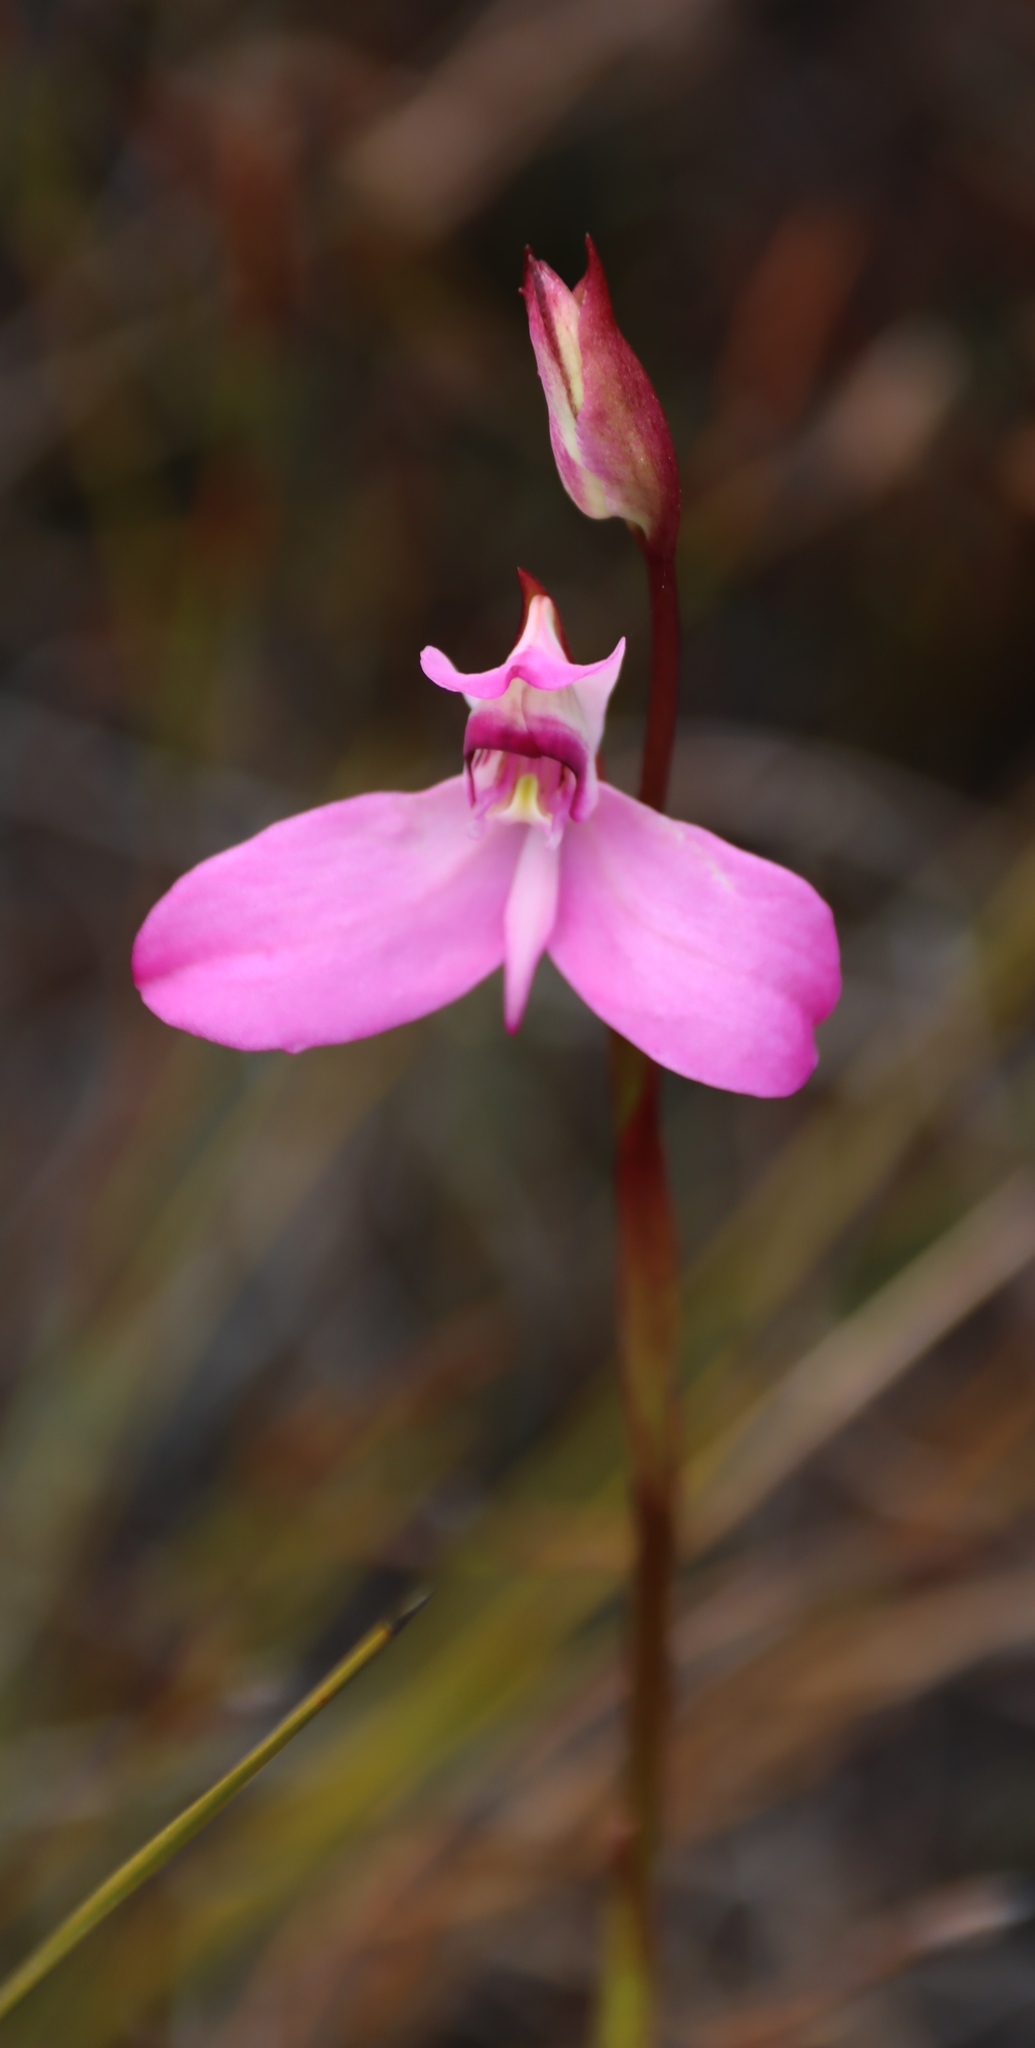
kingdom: Plantae
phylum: Tracheophyta
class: Liliopsida
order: Asparagales
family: Orchidaceae
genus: Disa
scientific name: Disa venosa
